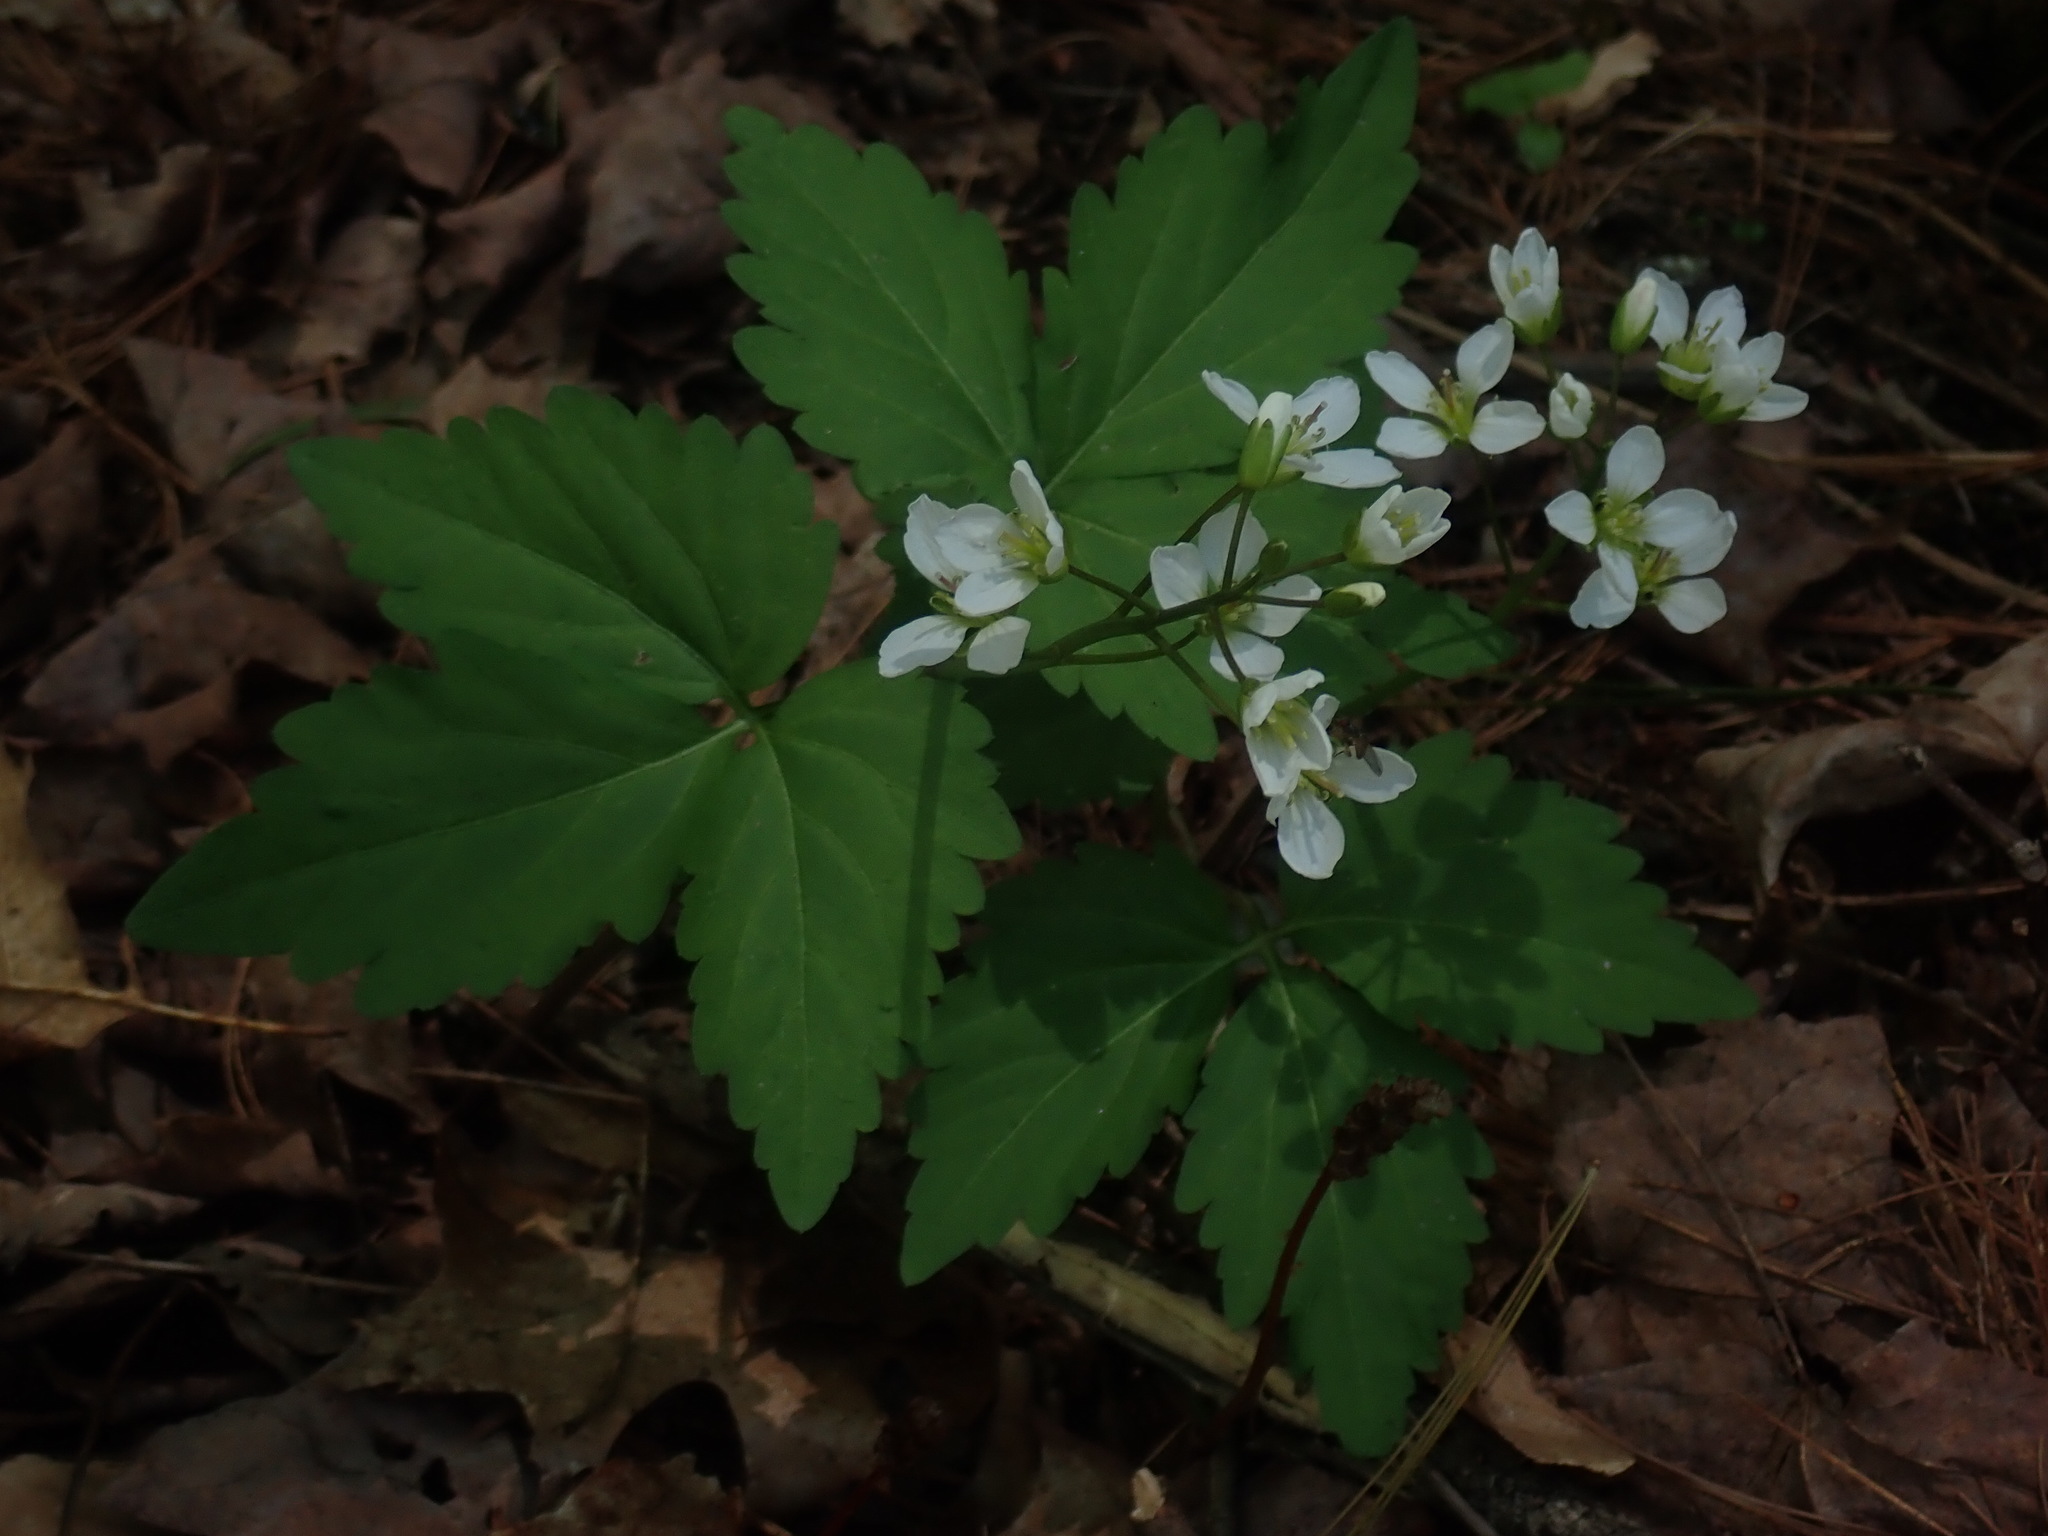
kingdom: Plantae
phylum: Tracheophyta
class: Magnoliopsida
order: Brassicales
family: Brassicaceae
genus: Cardamine
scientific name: Cardamine diphylla
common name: Broad-leaved toothwort
